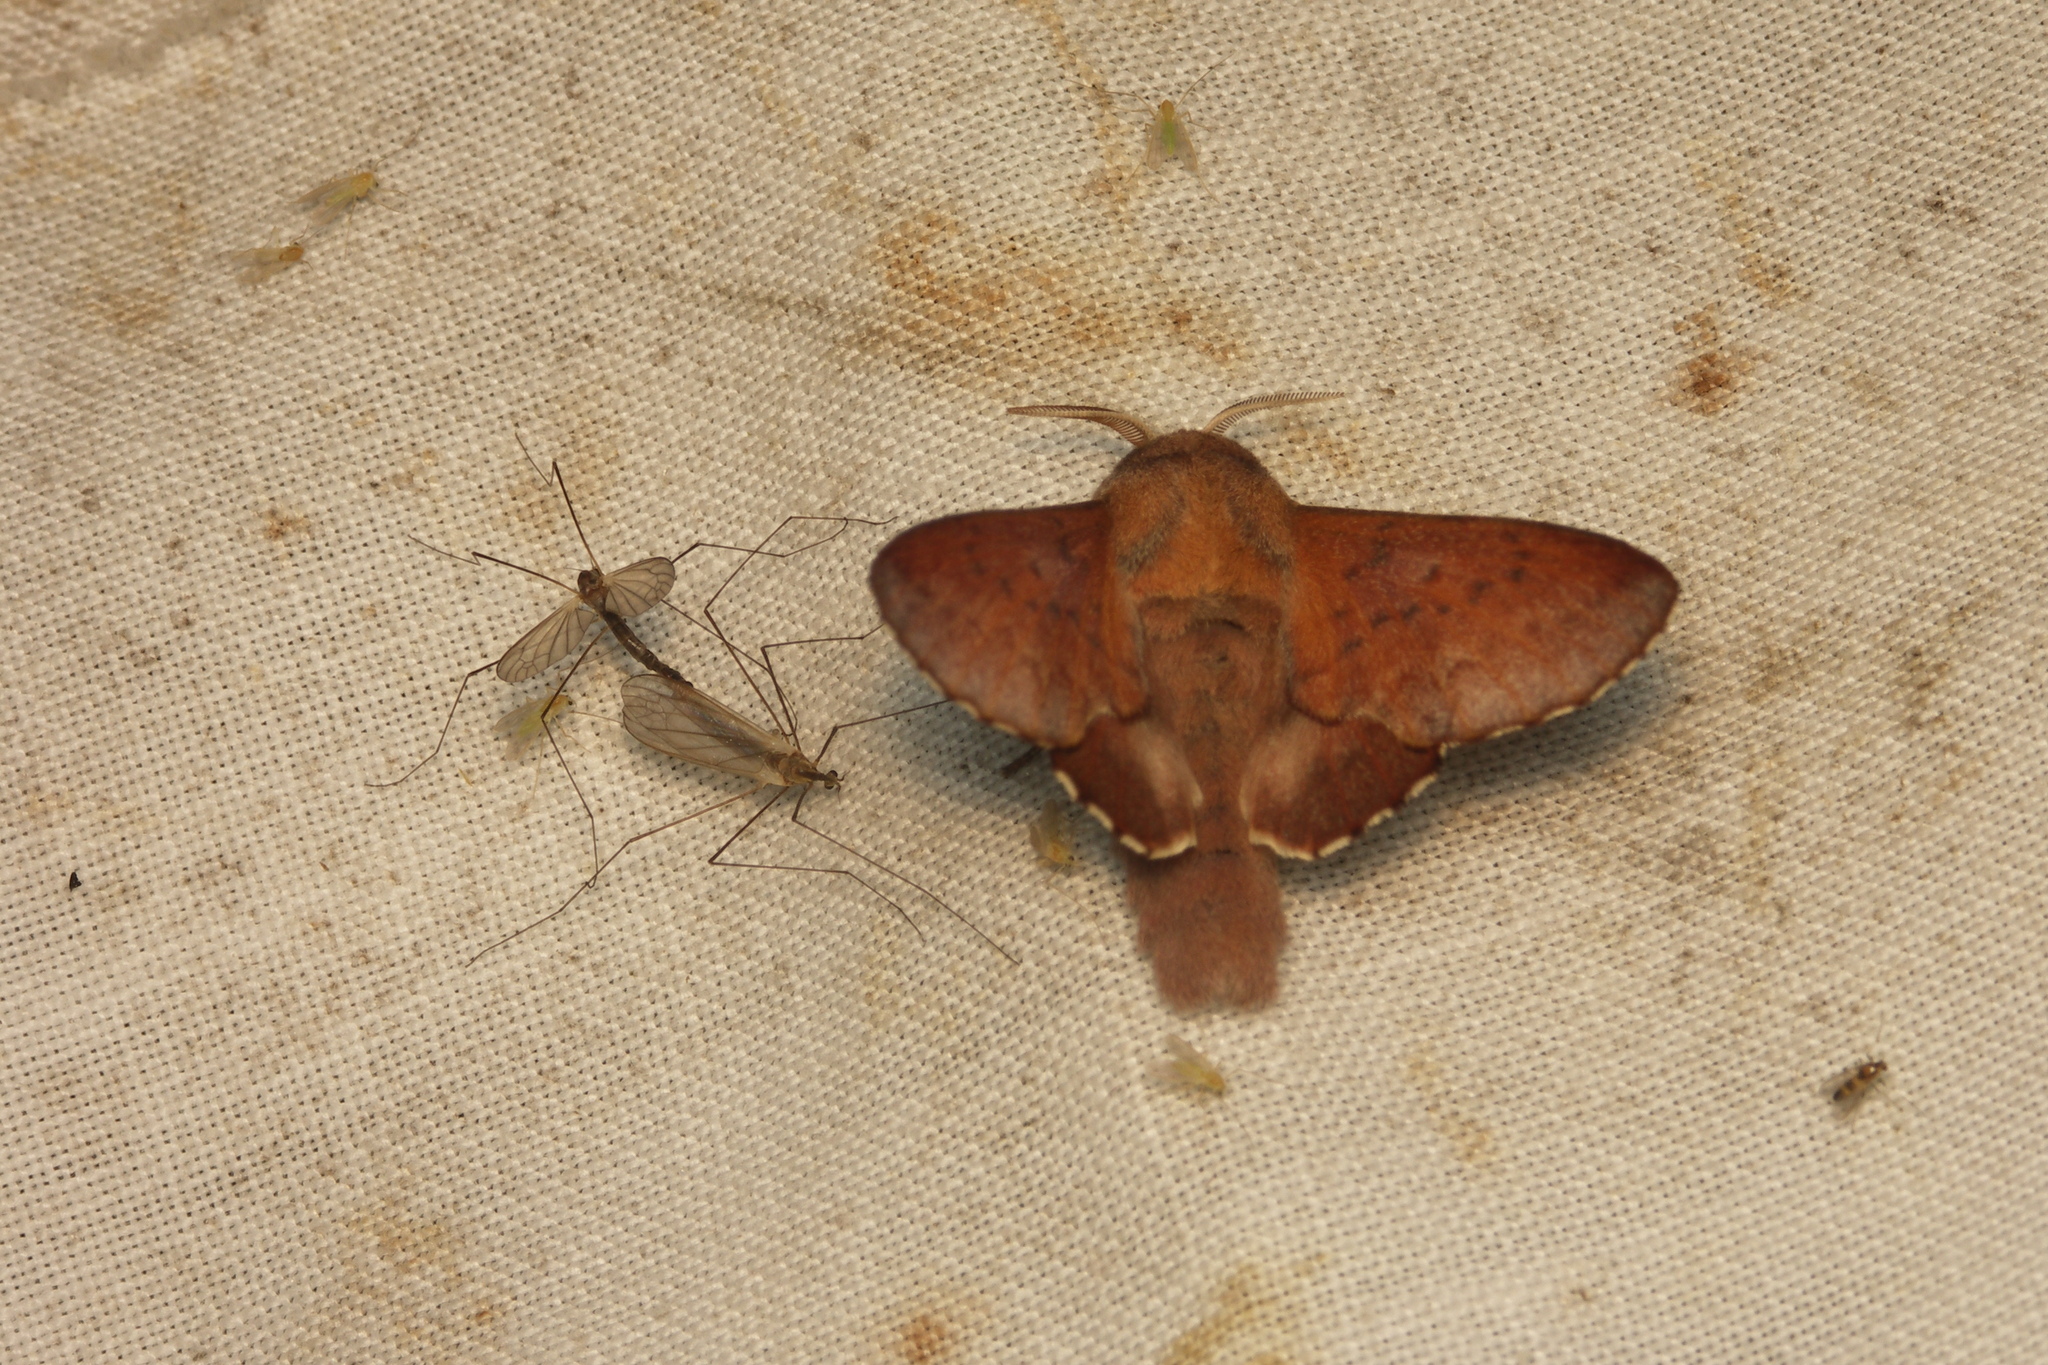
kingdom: Animalia
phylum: Arthropoda
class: Insecta
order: Lepidoptera
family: Lasiocampidae
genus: Phyllodesma
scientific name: Phyllodesma tremulifolia
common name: Aspen lappet
